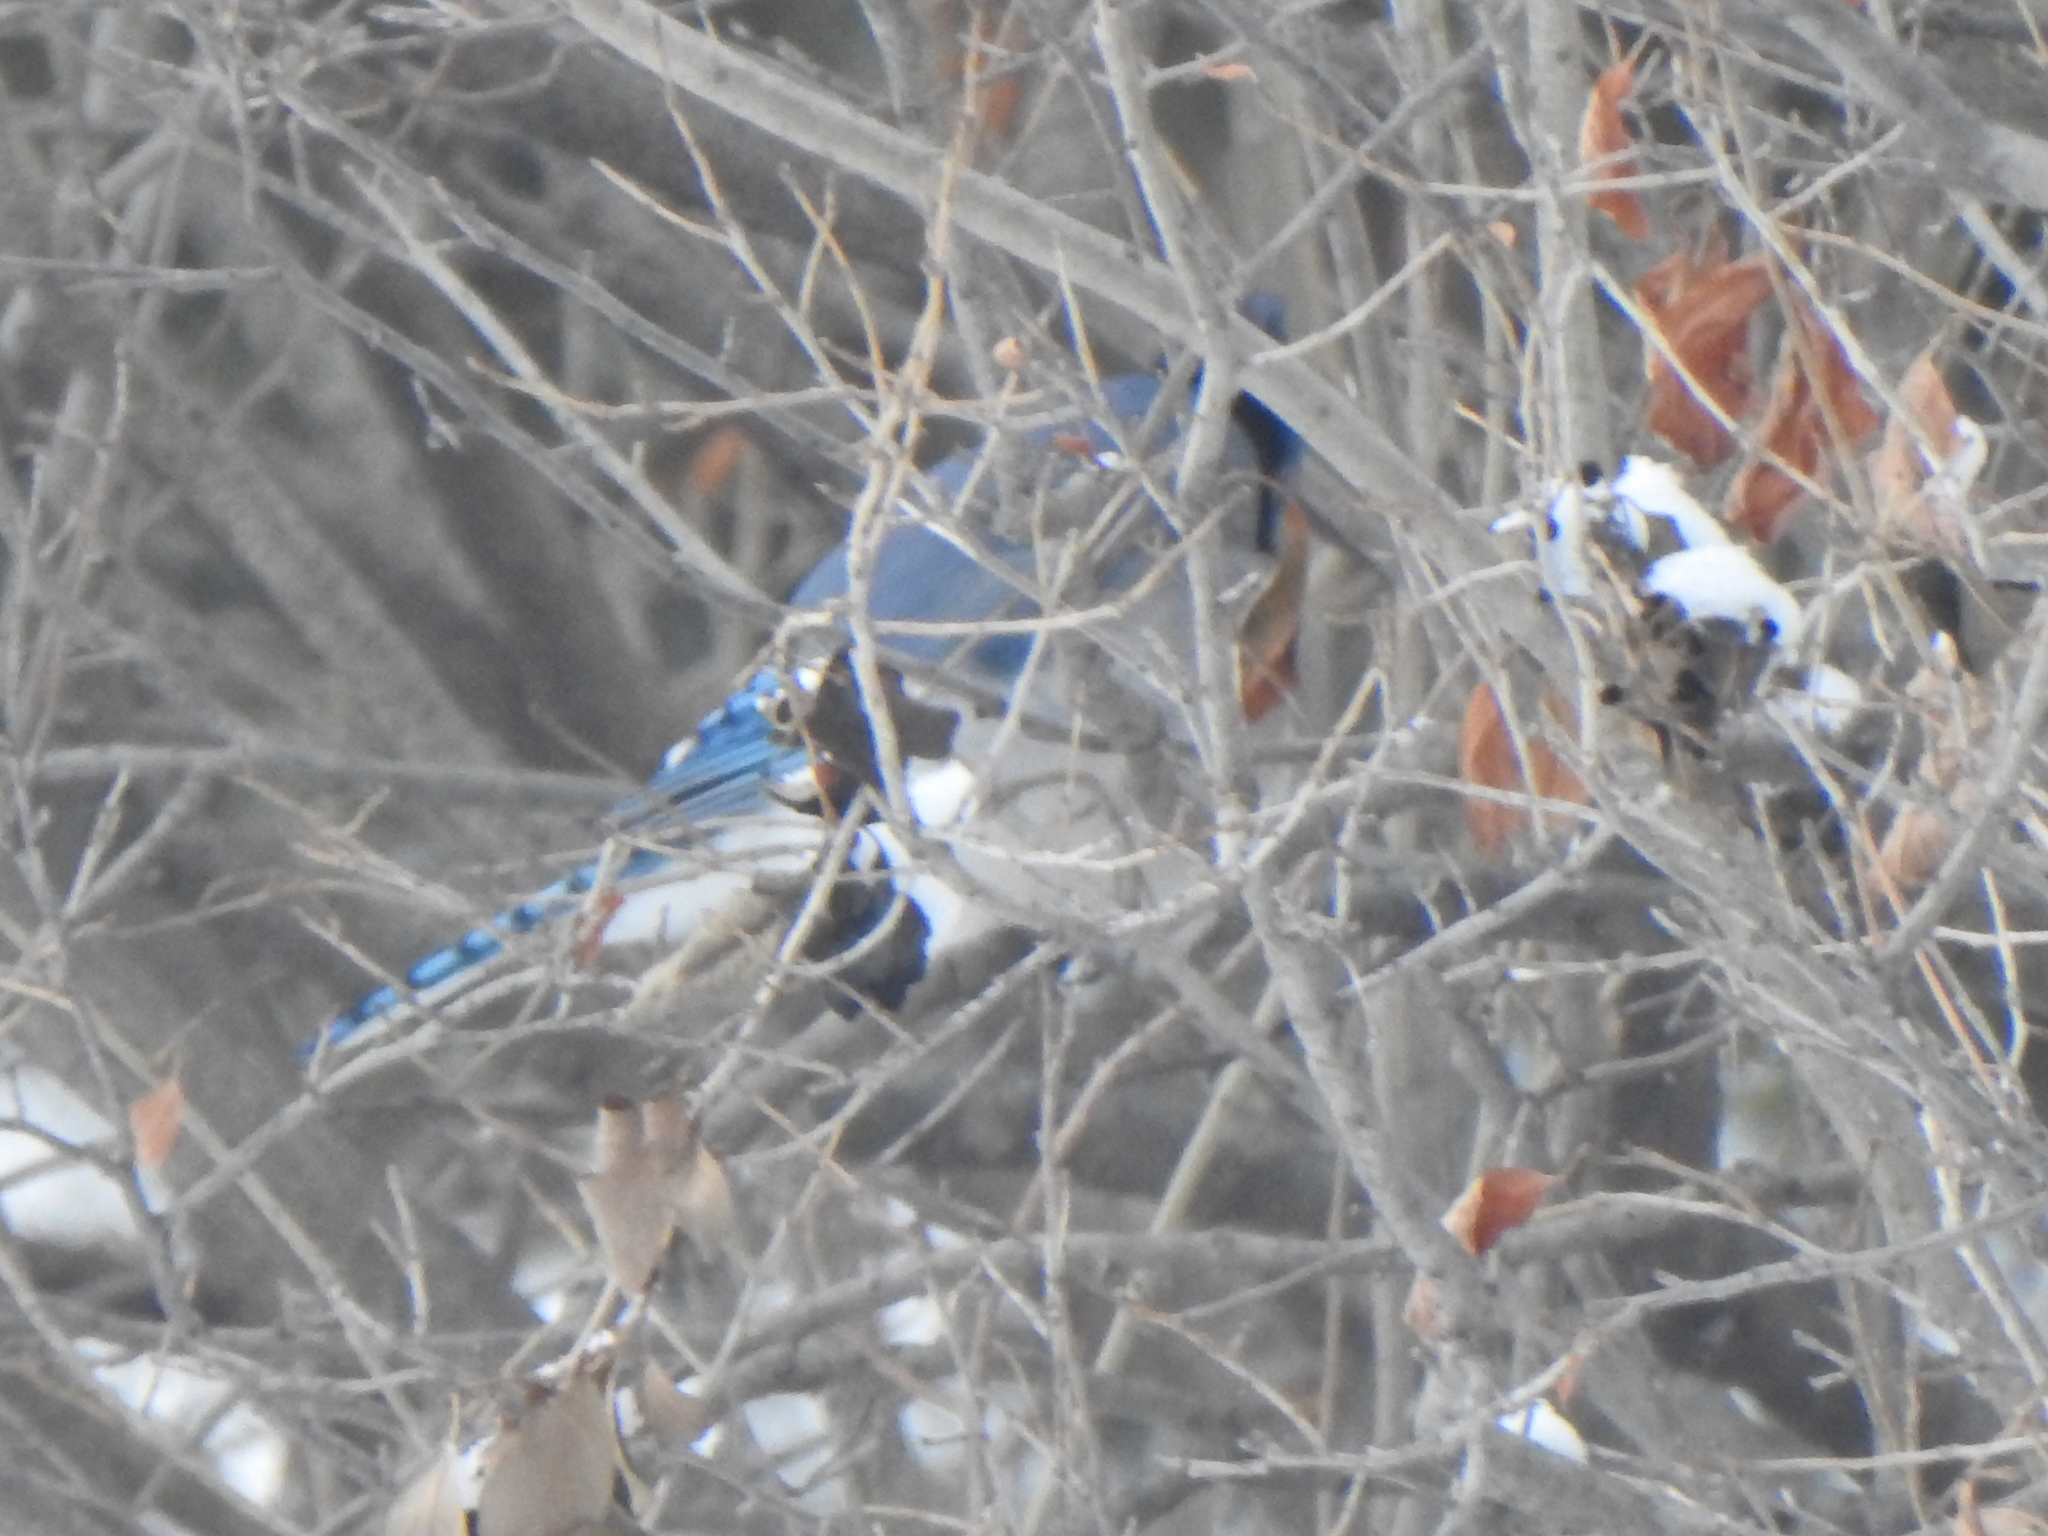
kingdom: Animalia
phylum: Chordata
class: Aves
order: Passeriformes
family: Corvidae
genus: Cyanocitta
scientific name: Cyanocitta cristata
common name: Blue jay
